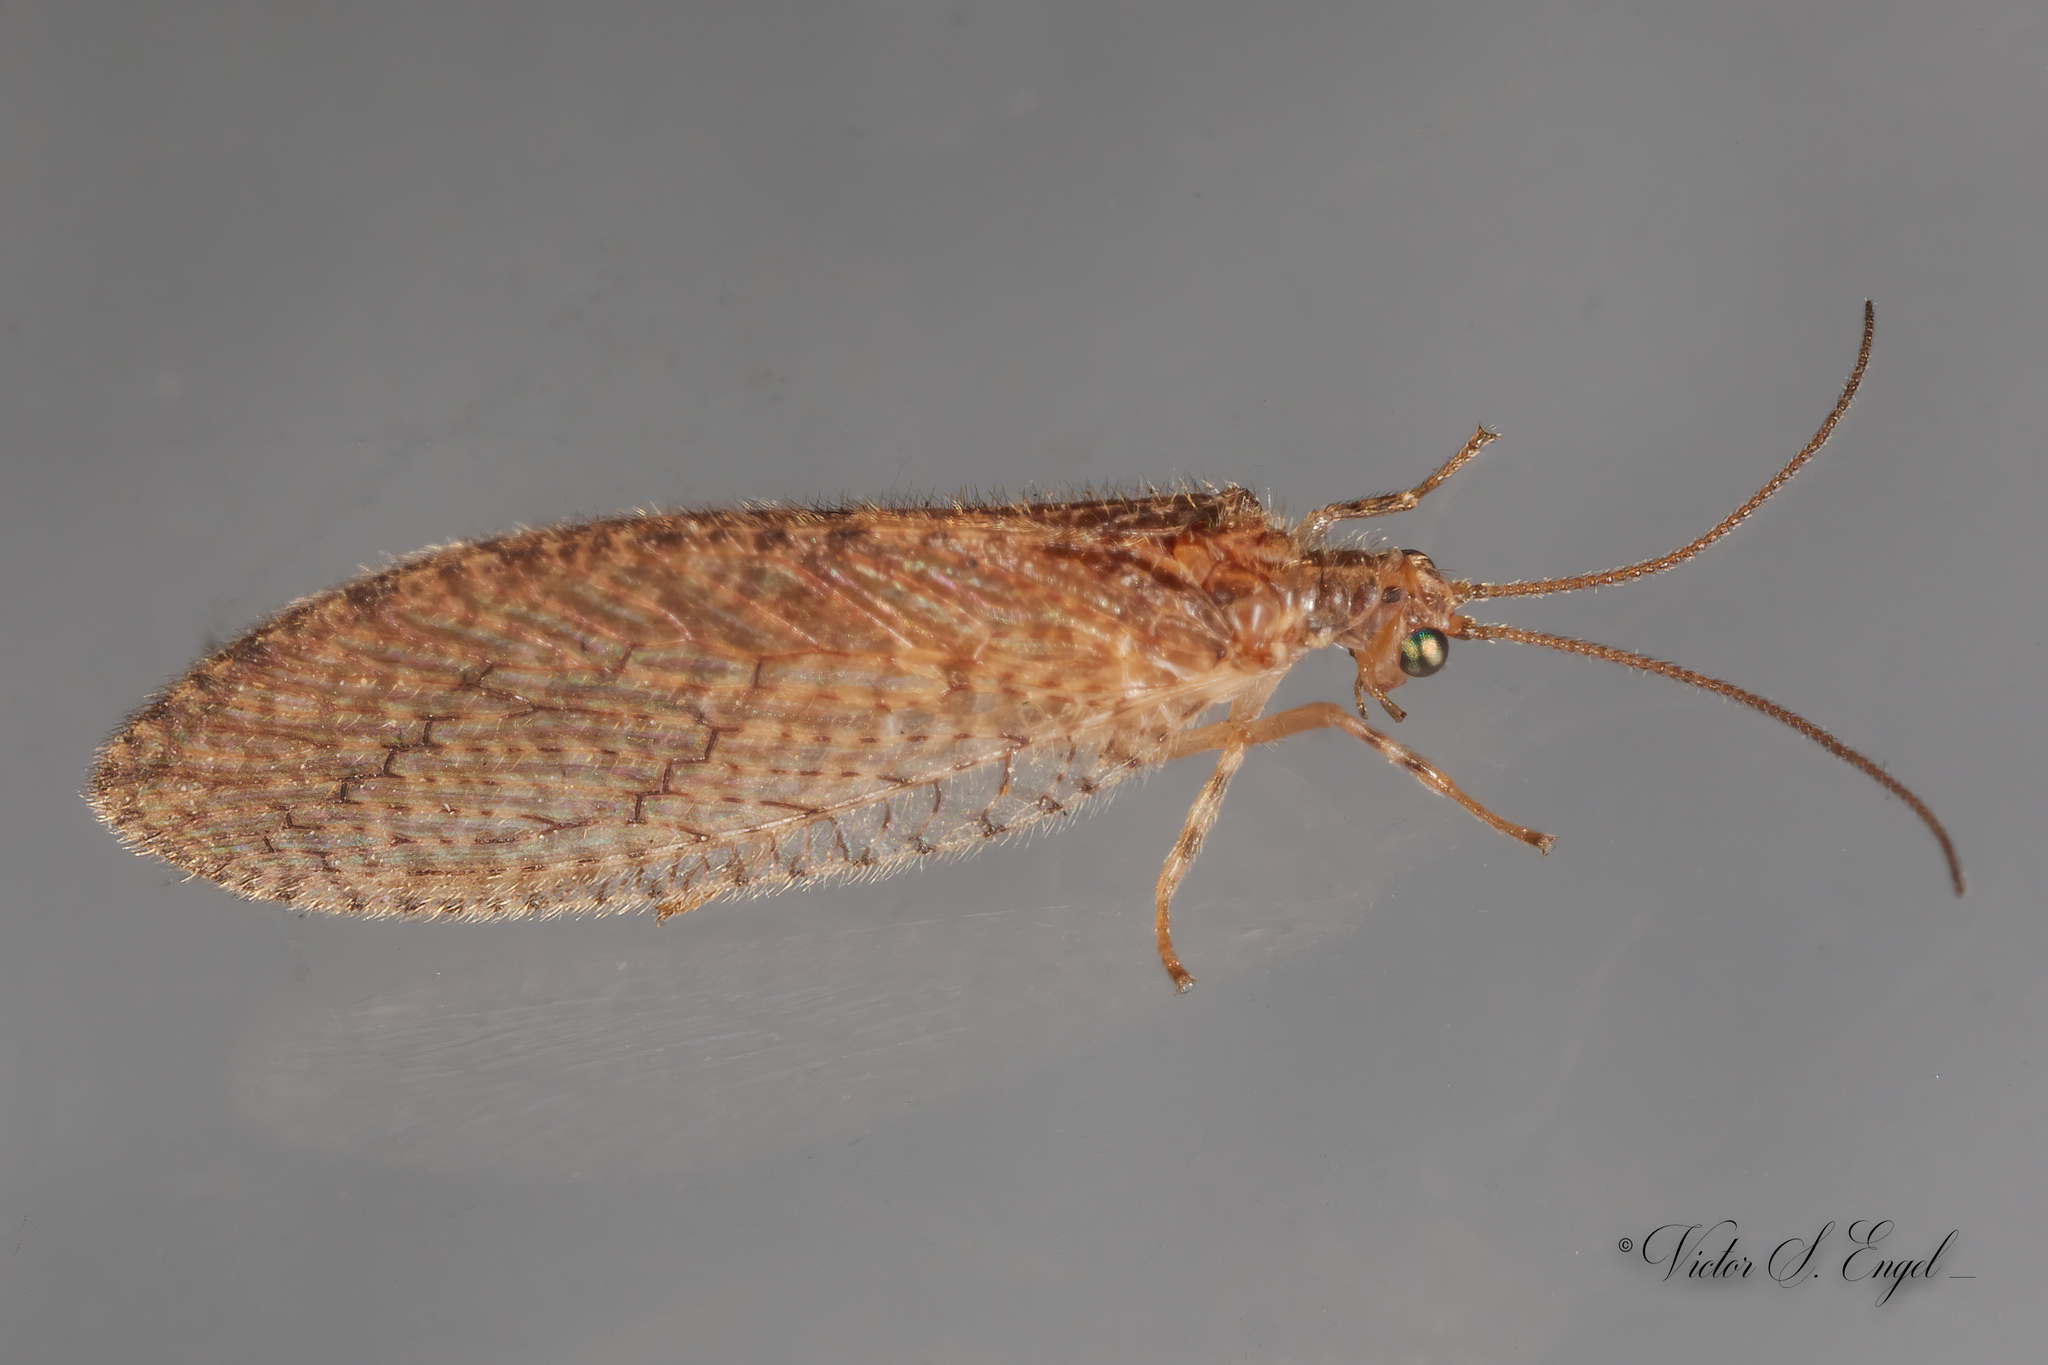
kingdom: Animalia
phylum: Arthropoda
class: Insecta
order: Neuroptera
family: Hemerobiidae
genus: Micromus
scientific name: Micromus posticus
